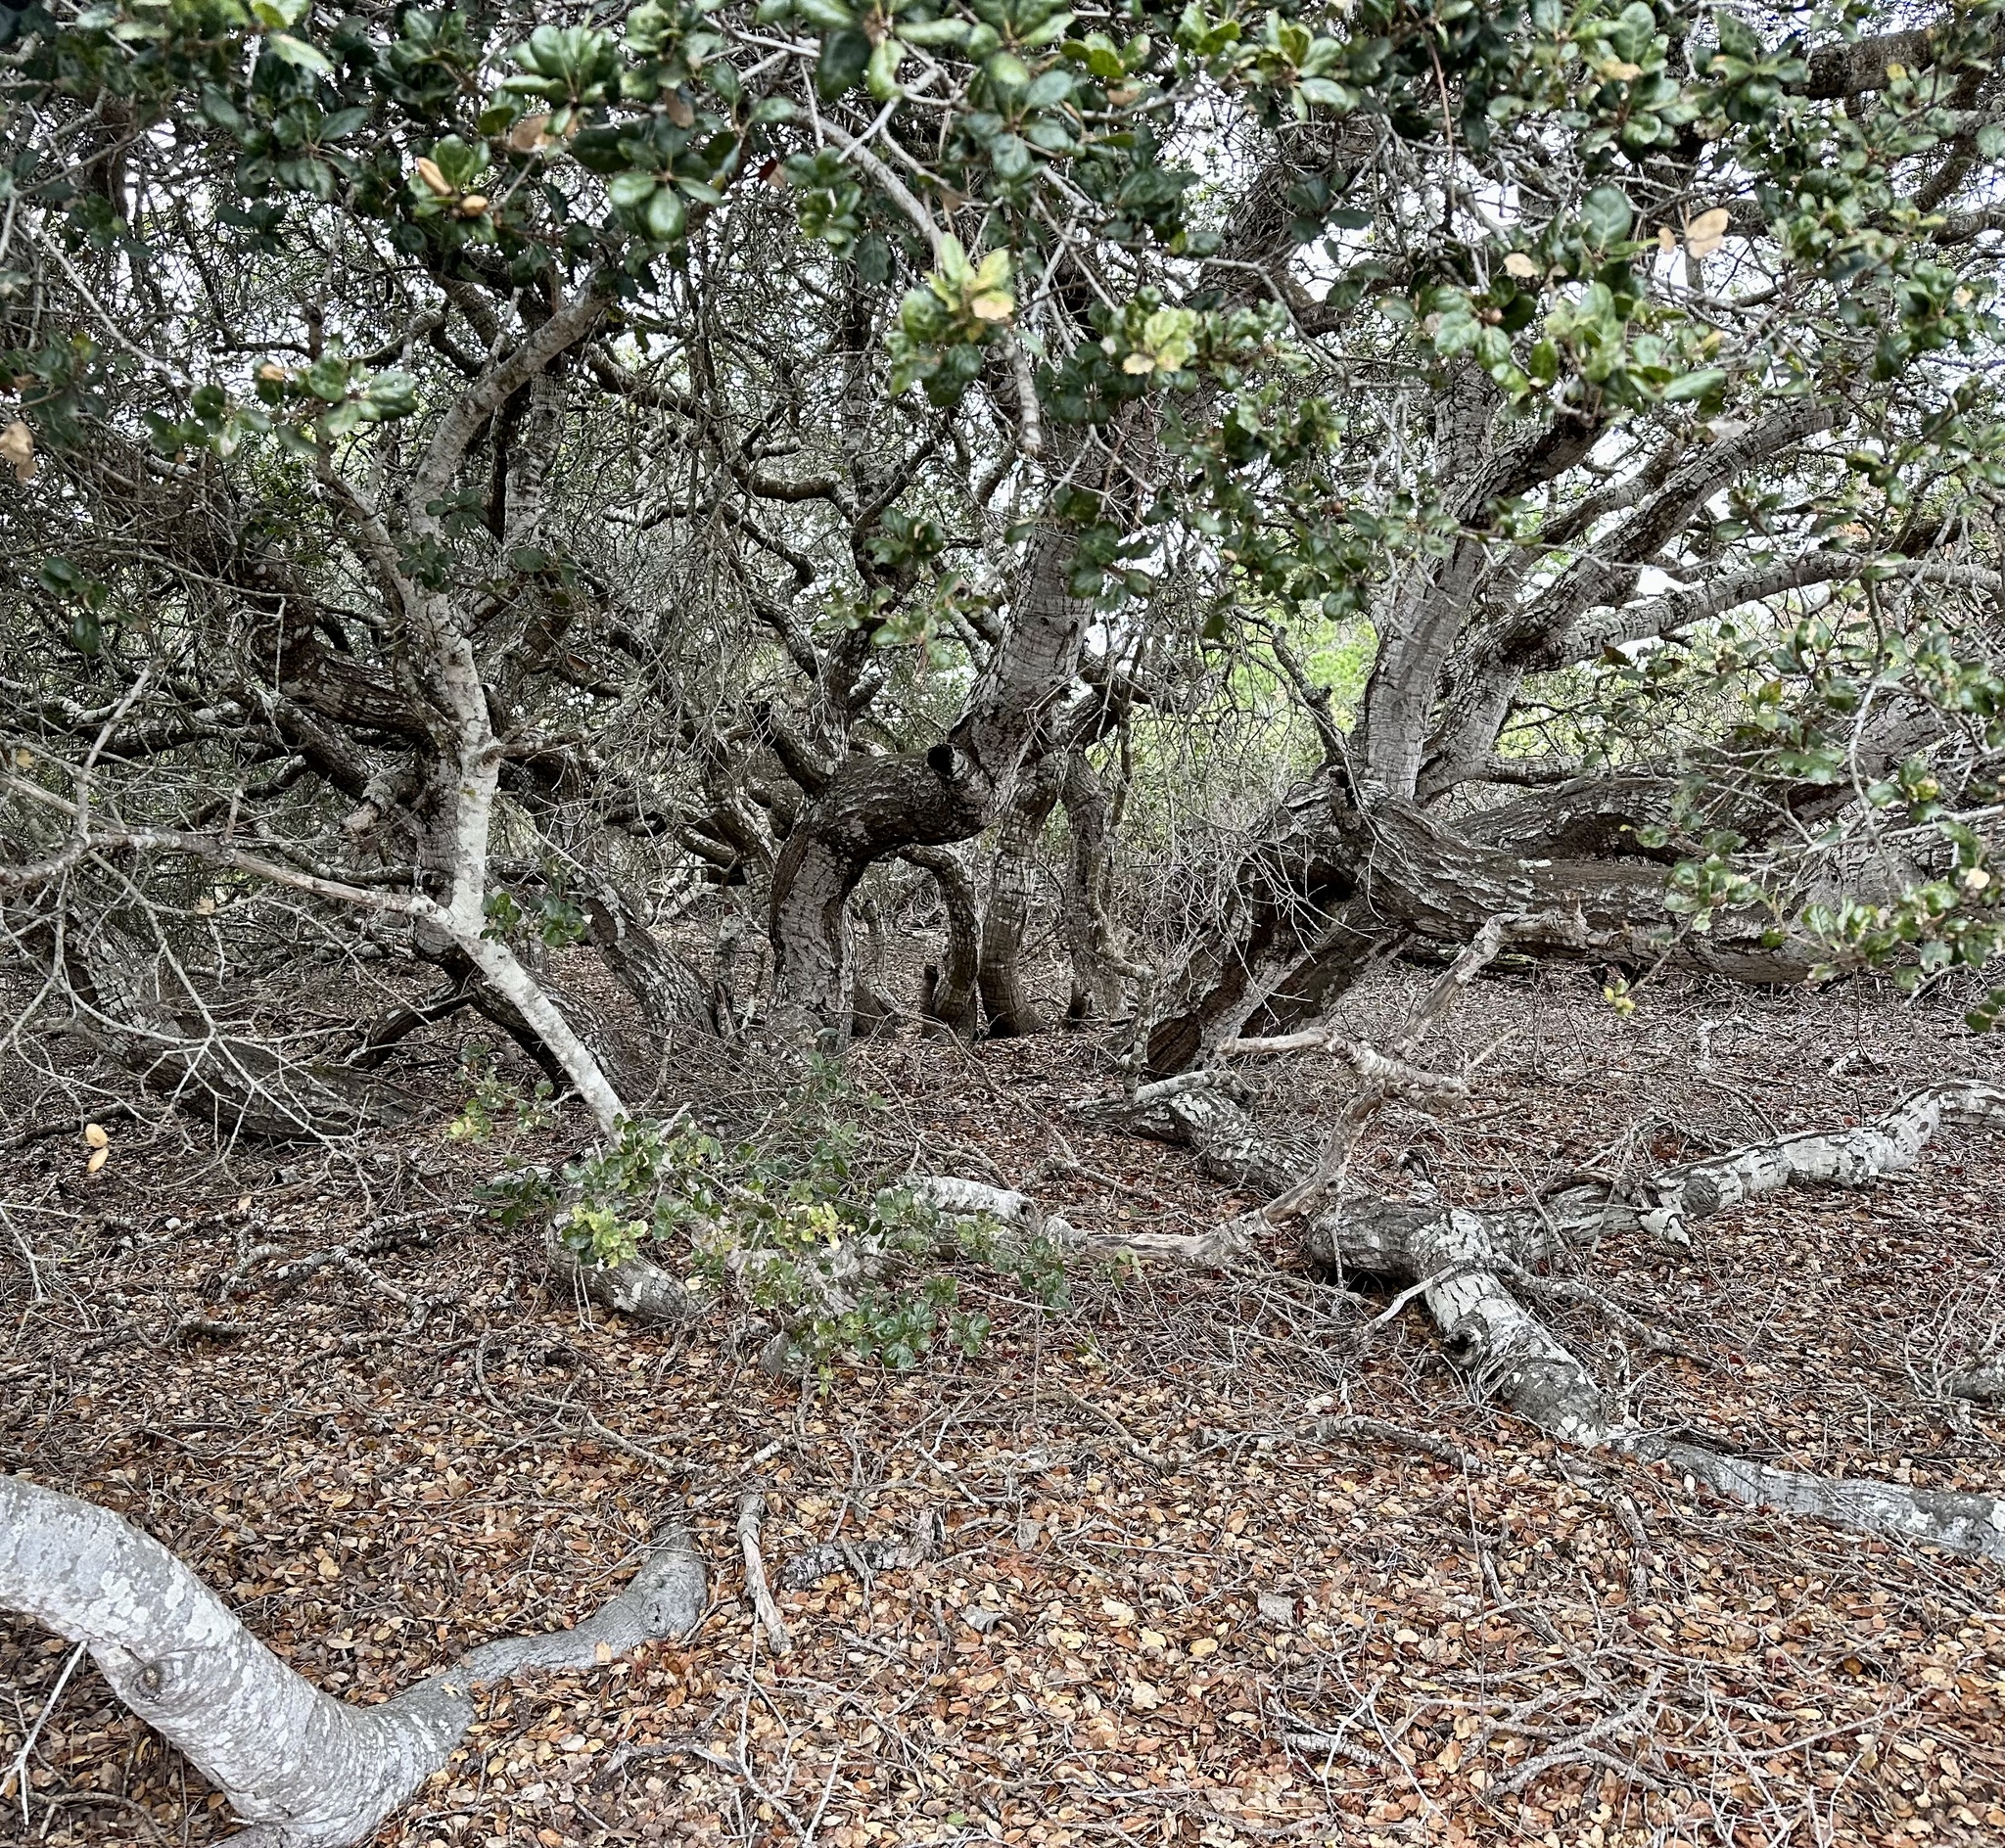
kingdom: Plantae
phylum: Tracheophyta
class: Magnoliopsida
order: Fagales
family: Fagaceae
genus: Quercus
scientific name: Quercus agrifolia
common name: California live oak
